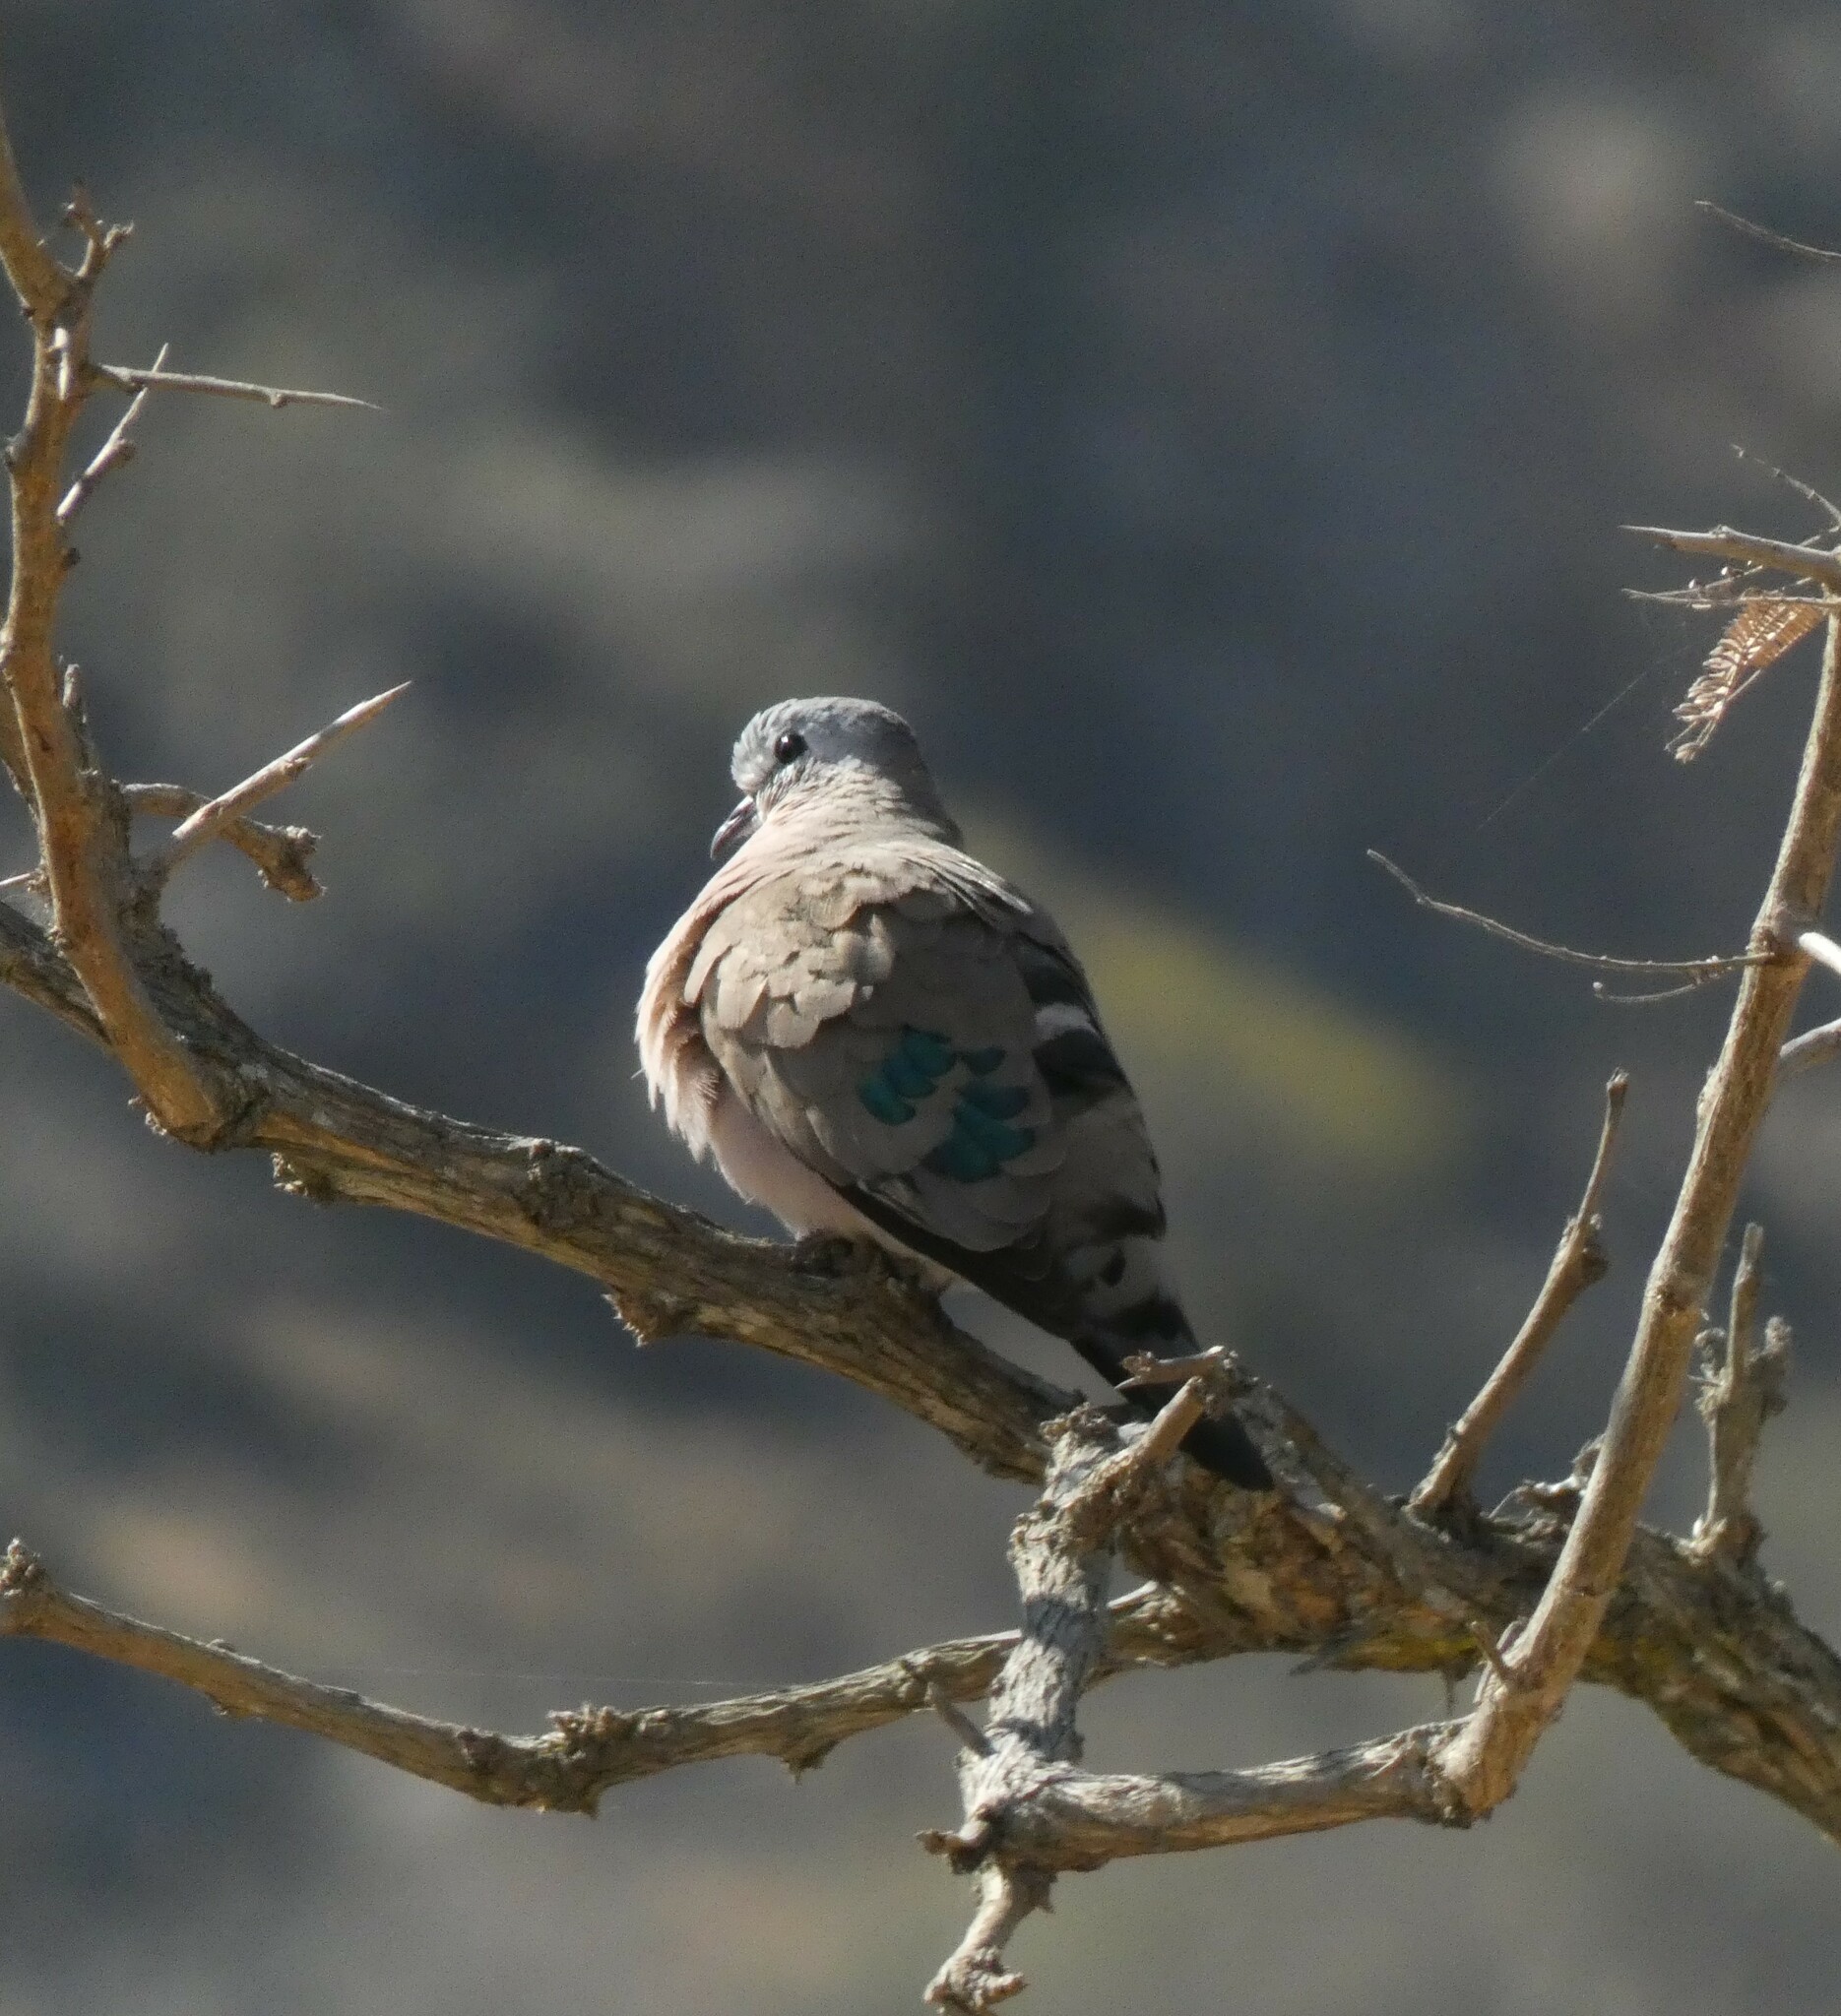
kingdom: Animalia
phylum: Chordata
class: Aves
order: Columbiformes
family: Columbidae
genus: Turtur
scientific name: Turtur chalcospilos
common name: Emerald-spotted wood dove
